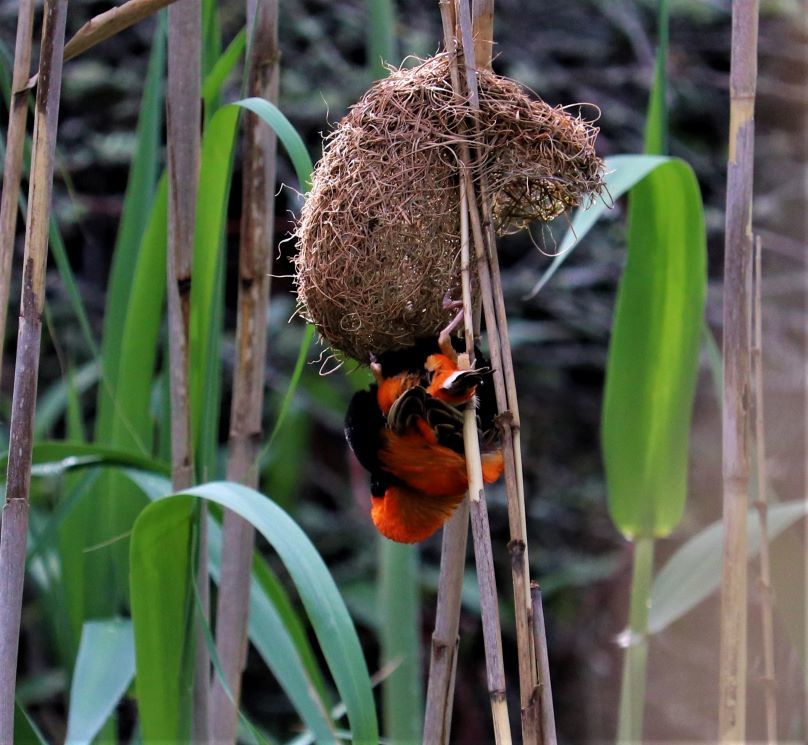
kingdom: Animalia
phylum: Chordata
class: Aves
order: Passeriformes
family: Ploceidae
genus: Euplectes
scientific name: Euplectes orix
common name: Southern red bishop
